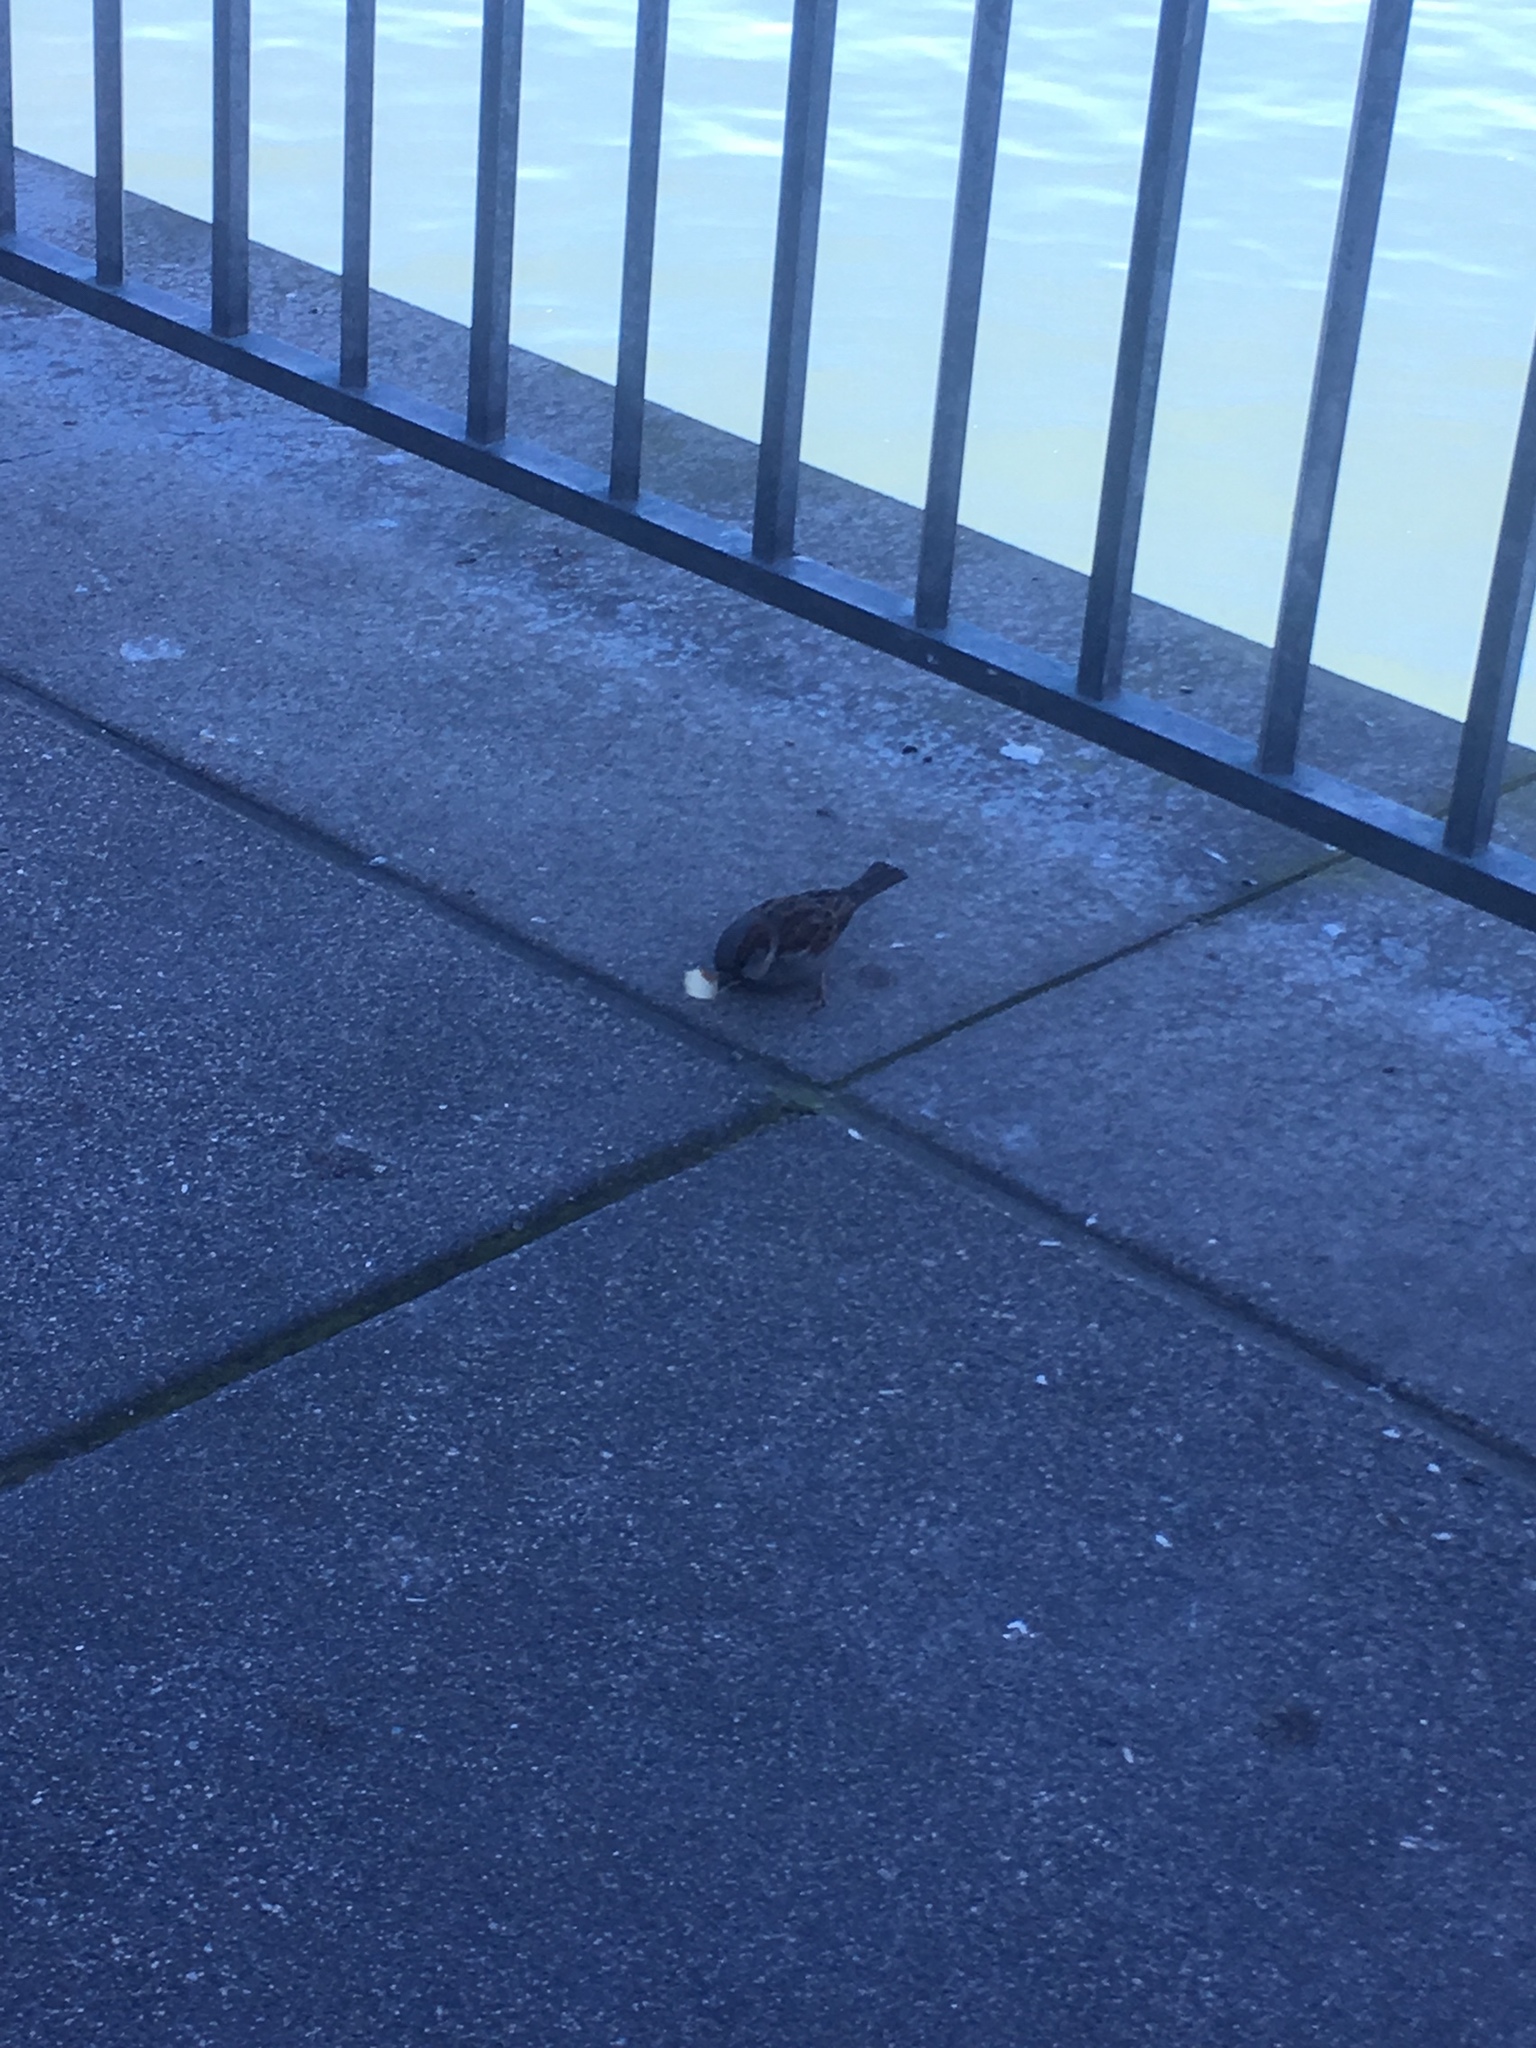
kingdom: Animalia
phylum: Chordata
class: Aves
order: Passeriformes
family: Passeridae
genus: Passer
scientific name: Passer domesticus
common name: House sparrow
